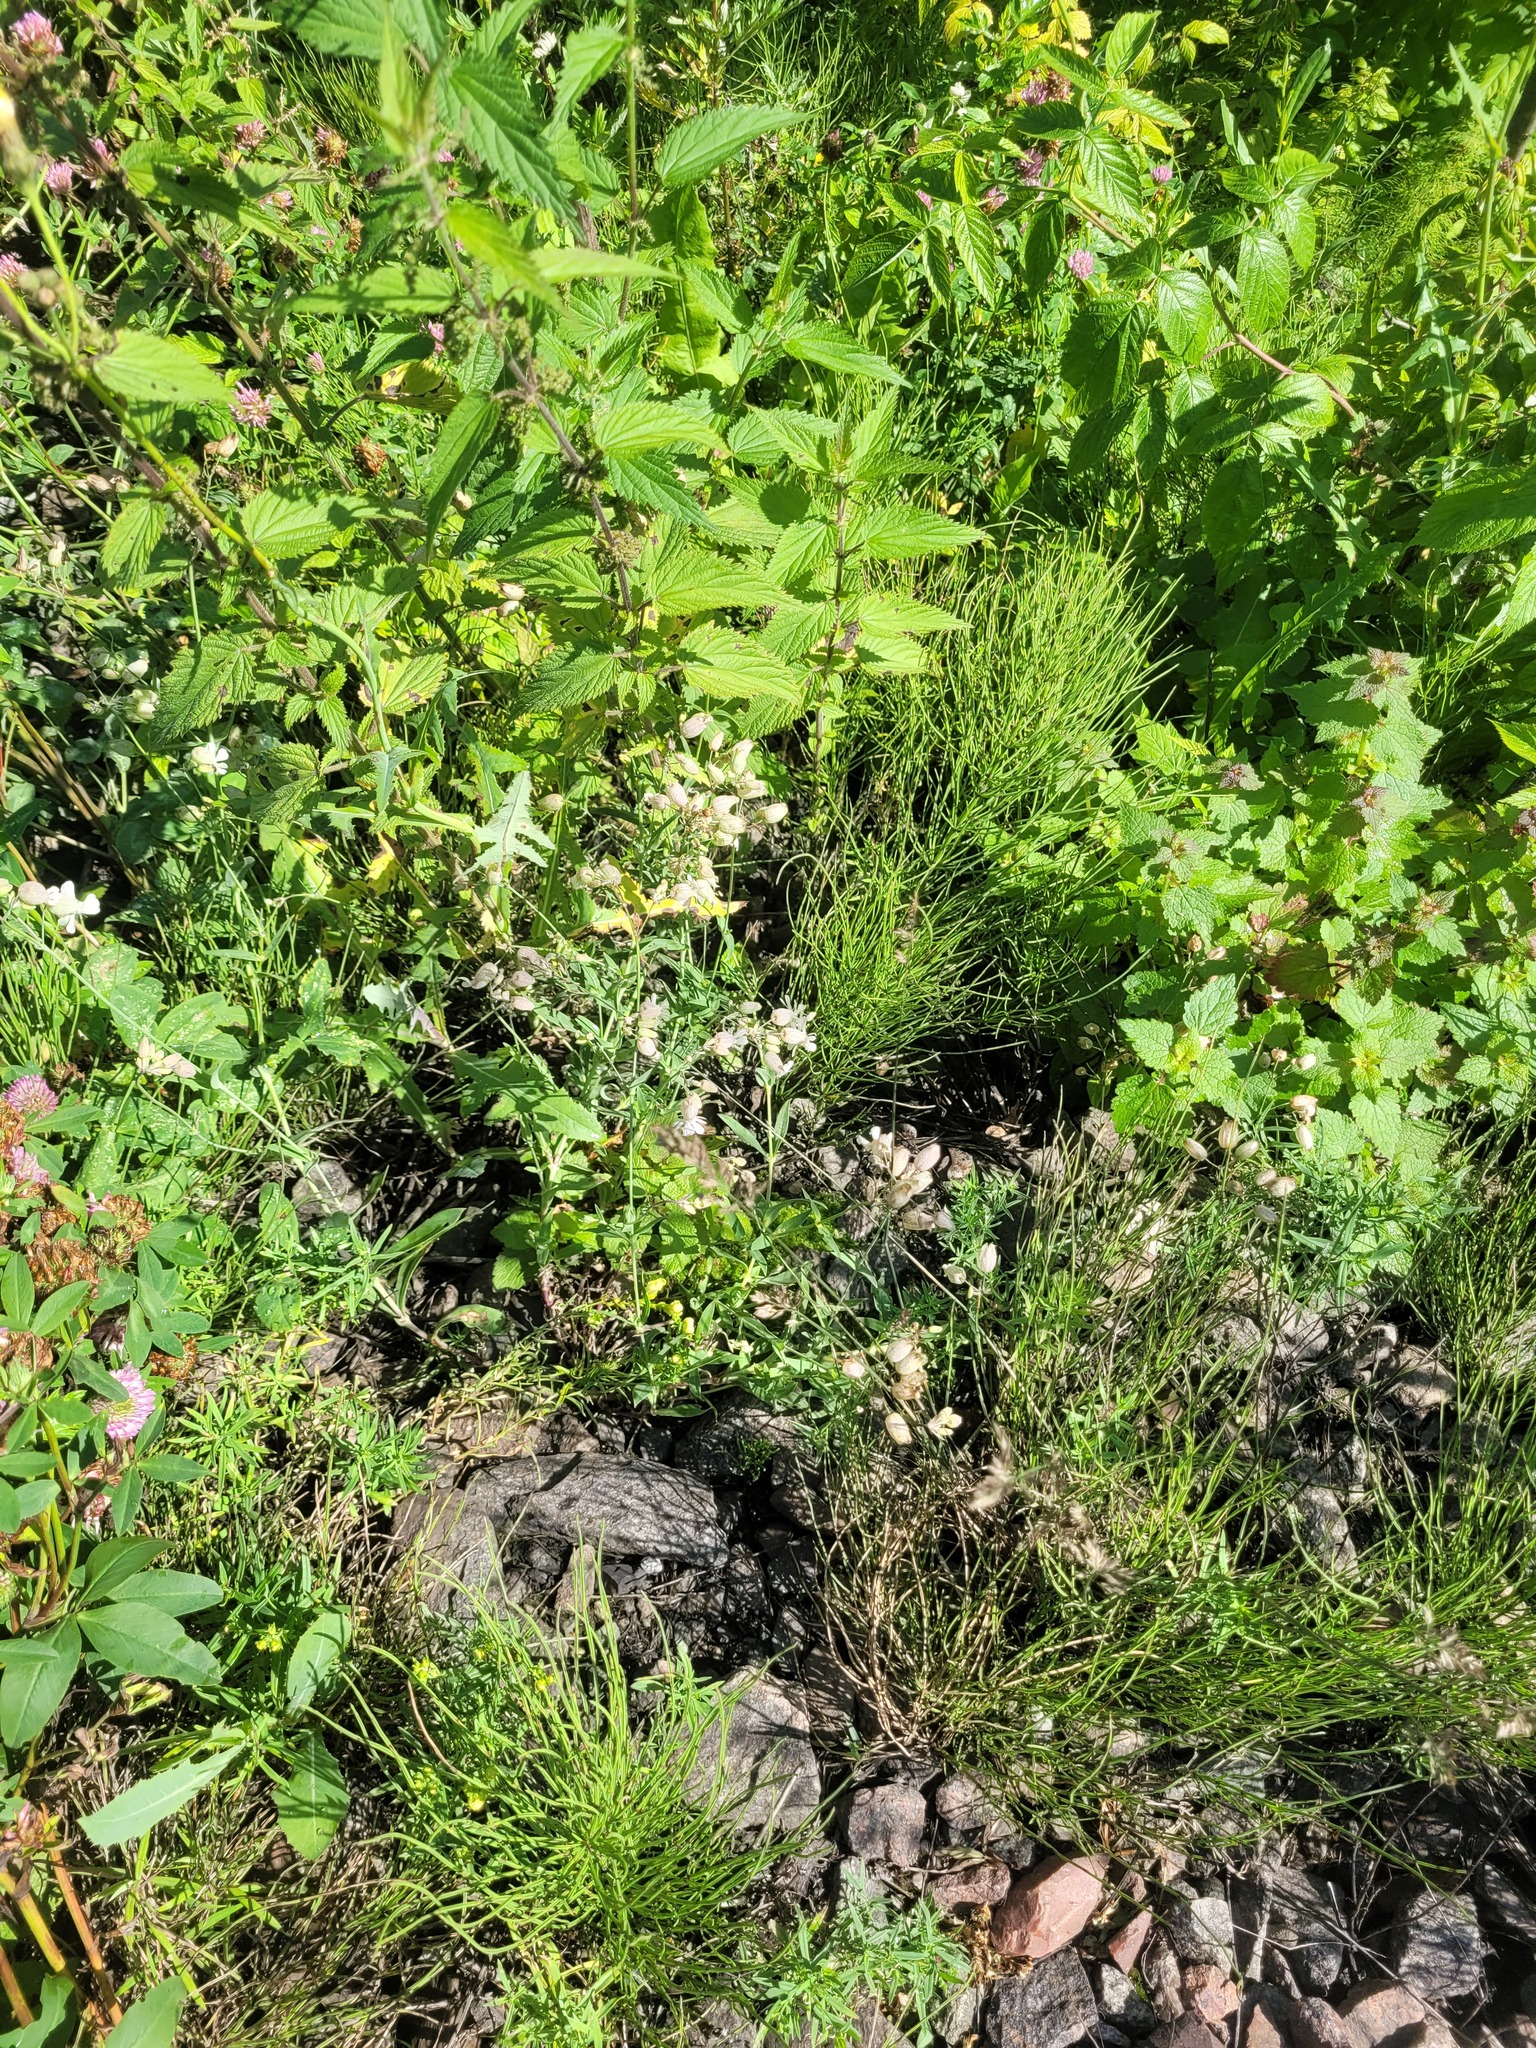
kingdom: Plantae
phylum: Tracheophyta
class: Magnoliopsida
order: Caryophyllales
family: Caryophyllaceae
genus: Silene
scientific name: Silene vulgaris
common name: Bladder campion
